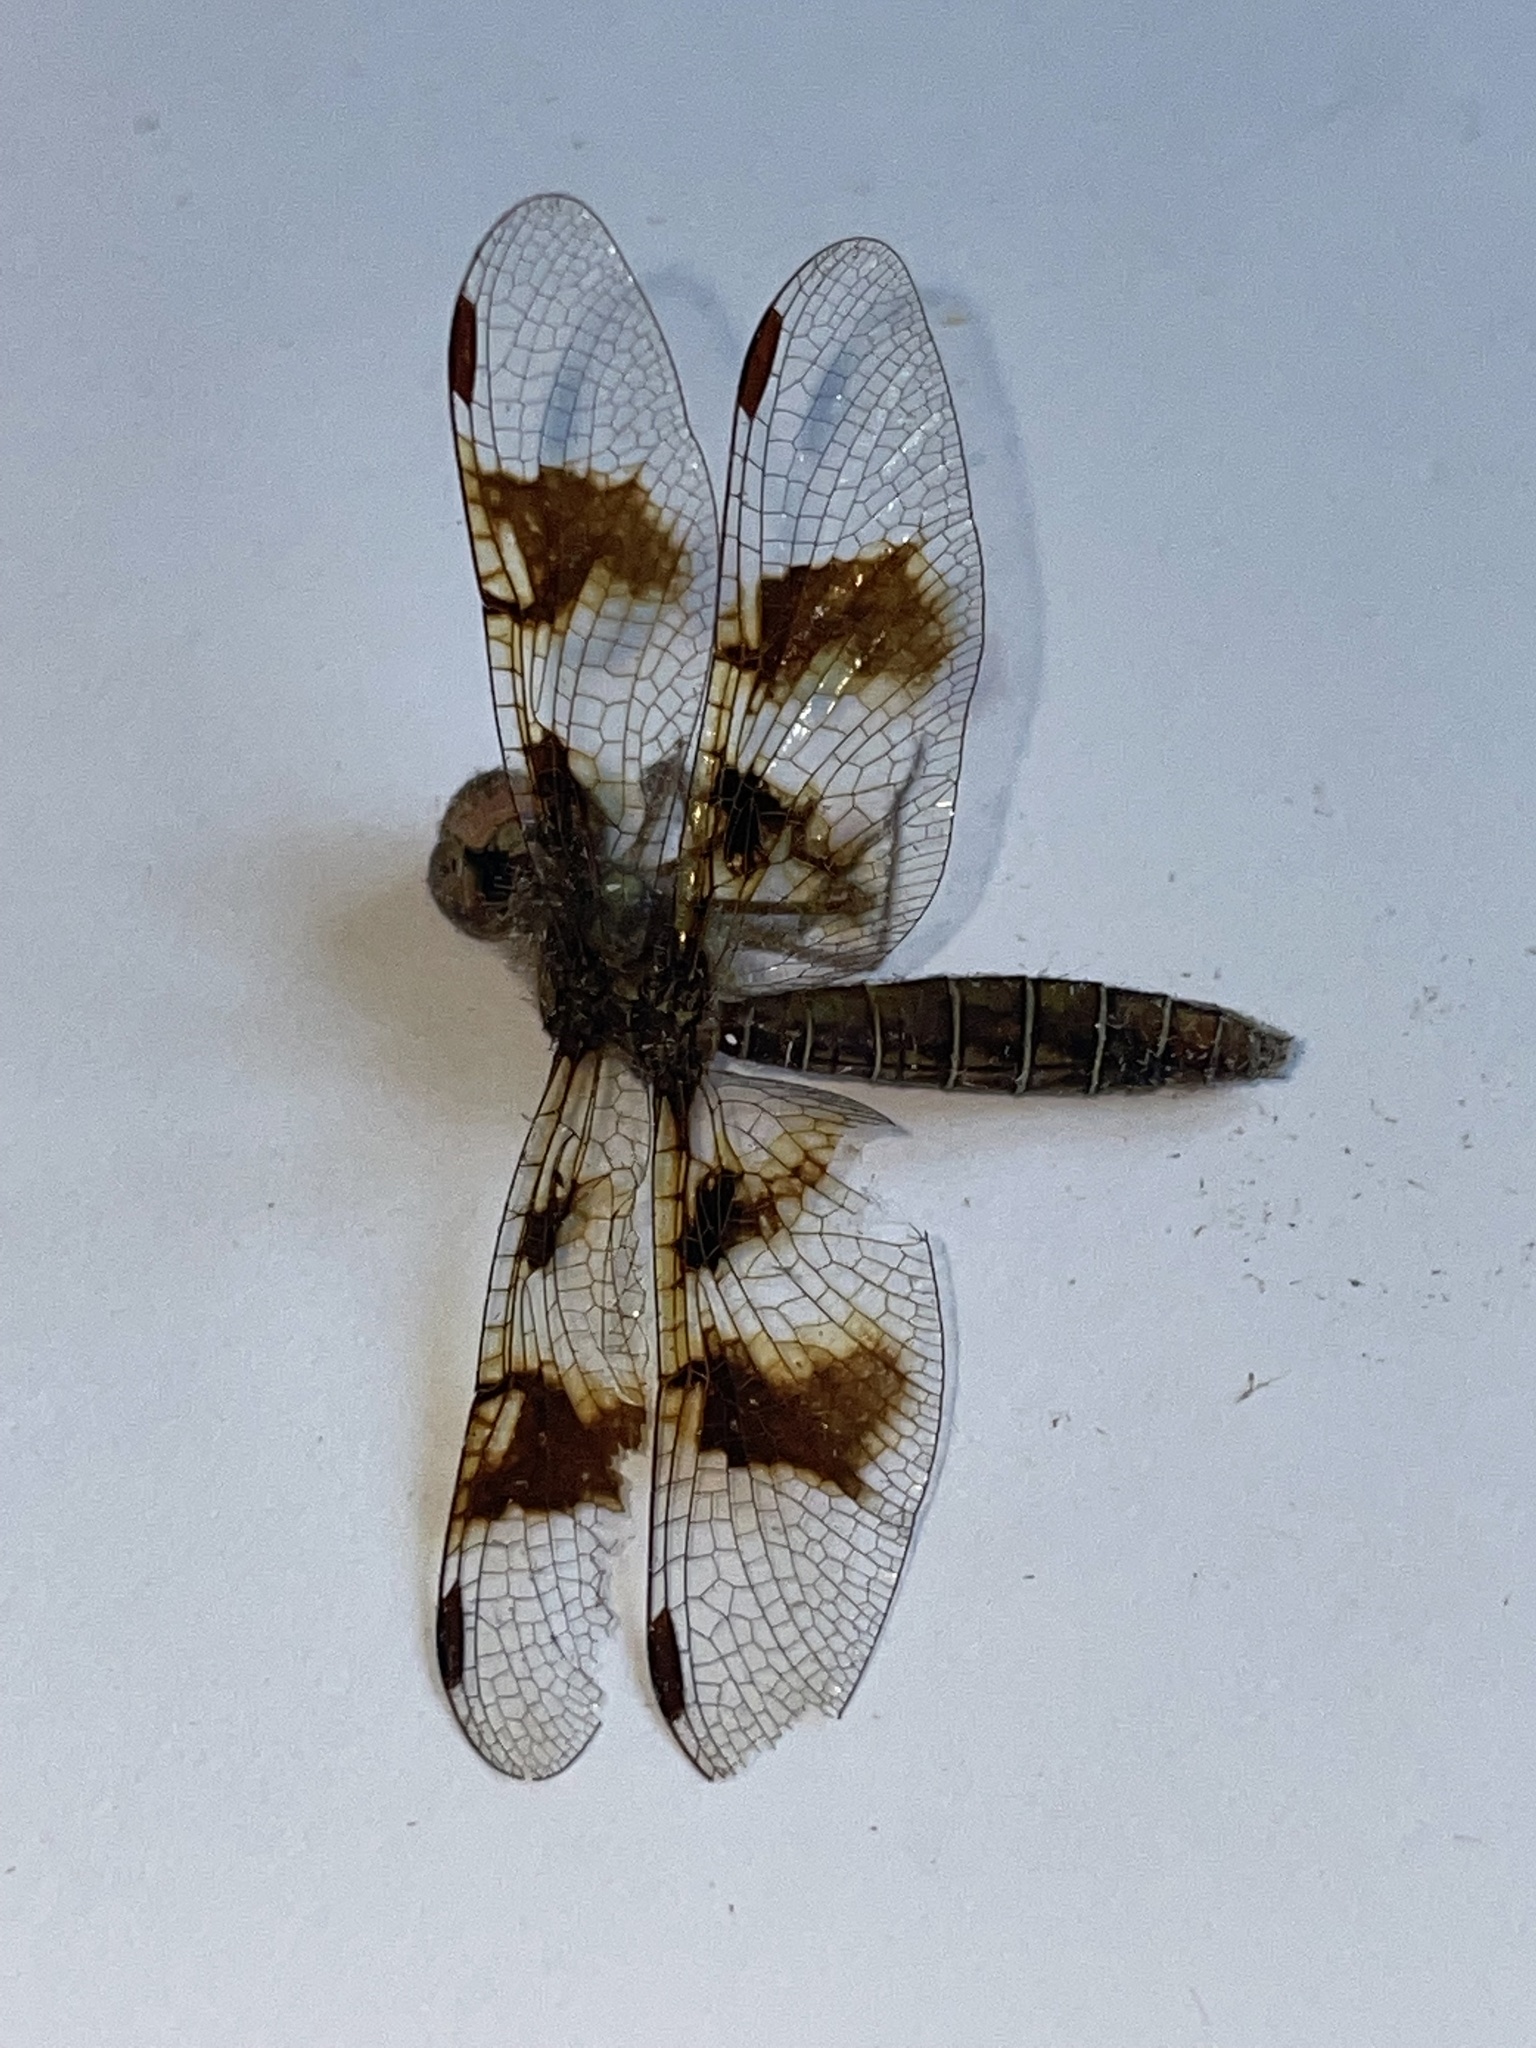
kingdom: Animalia
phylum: Arthropoda
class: Insecta
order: Odonata
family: Libellulidae
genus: Perithemis
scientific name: Perithemis tenera
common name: Eastern amberwing
